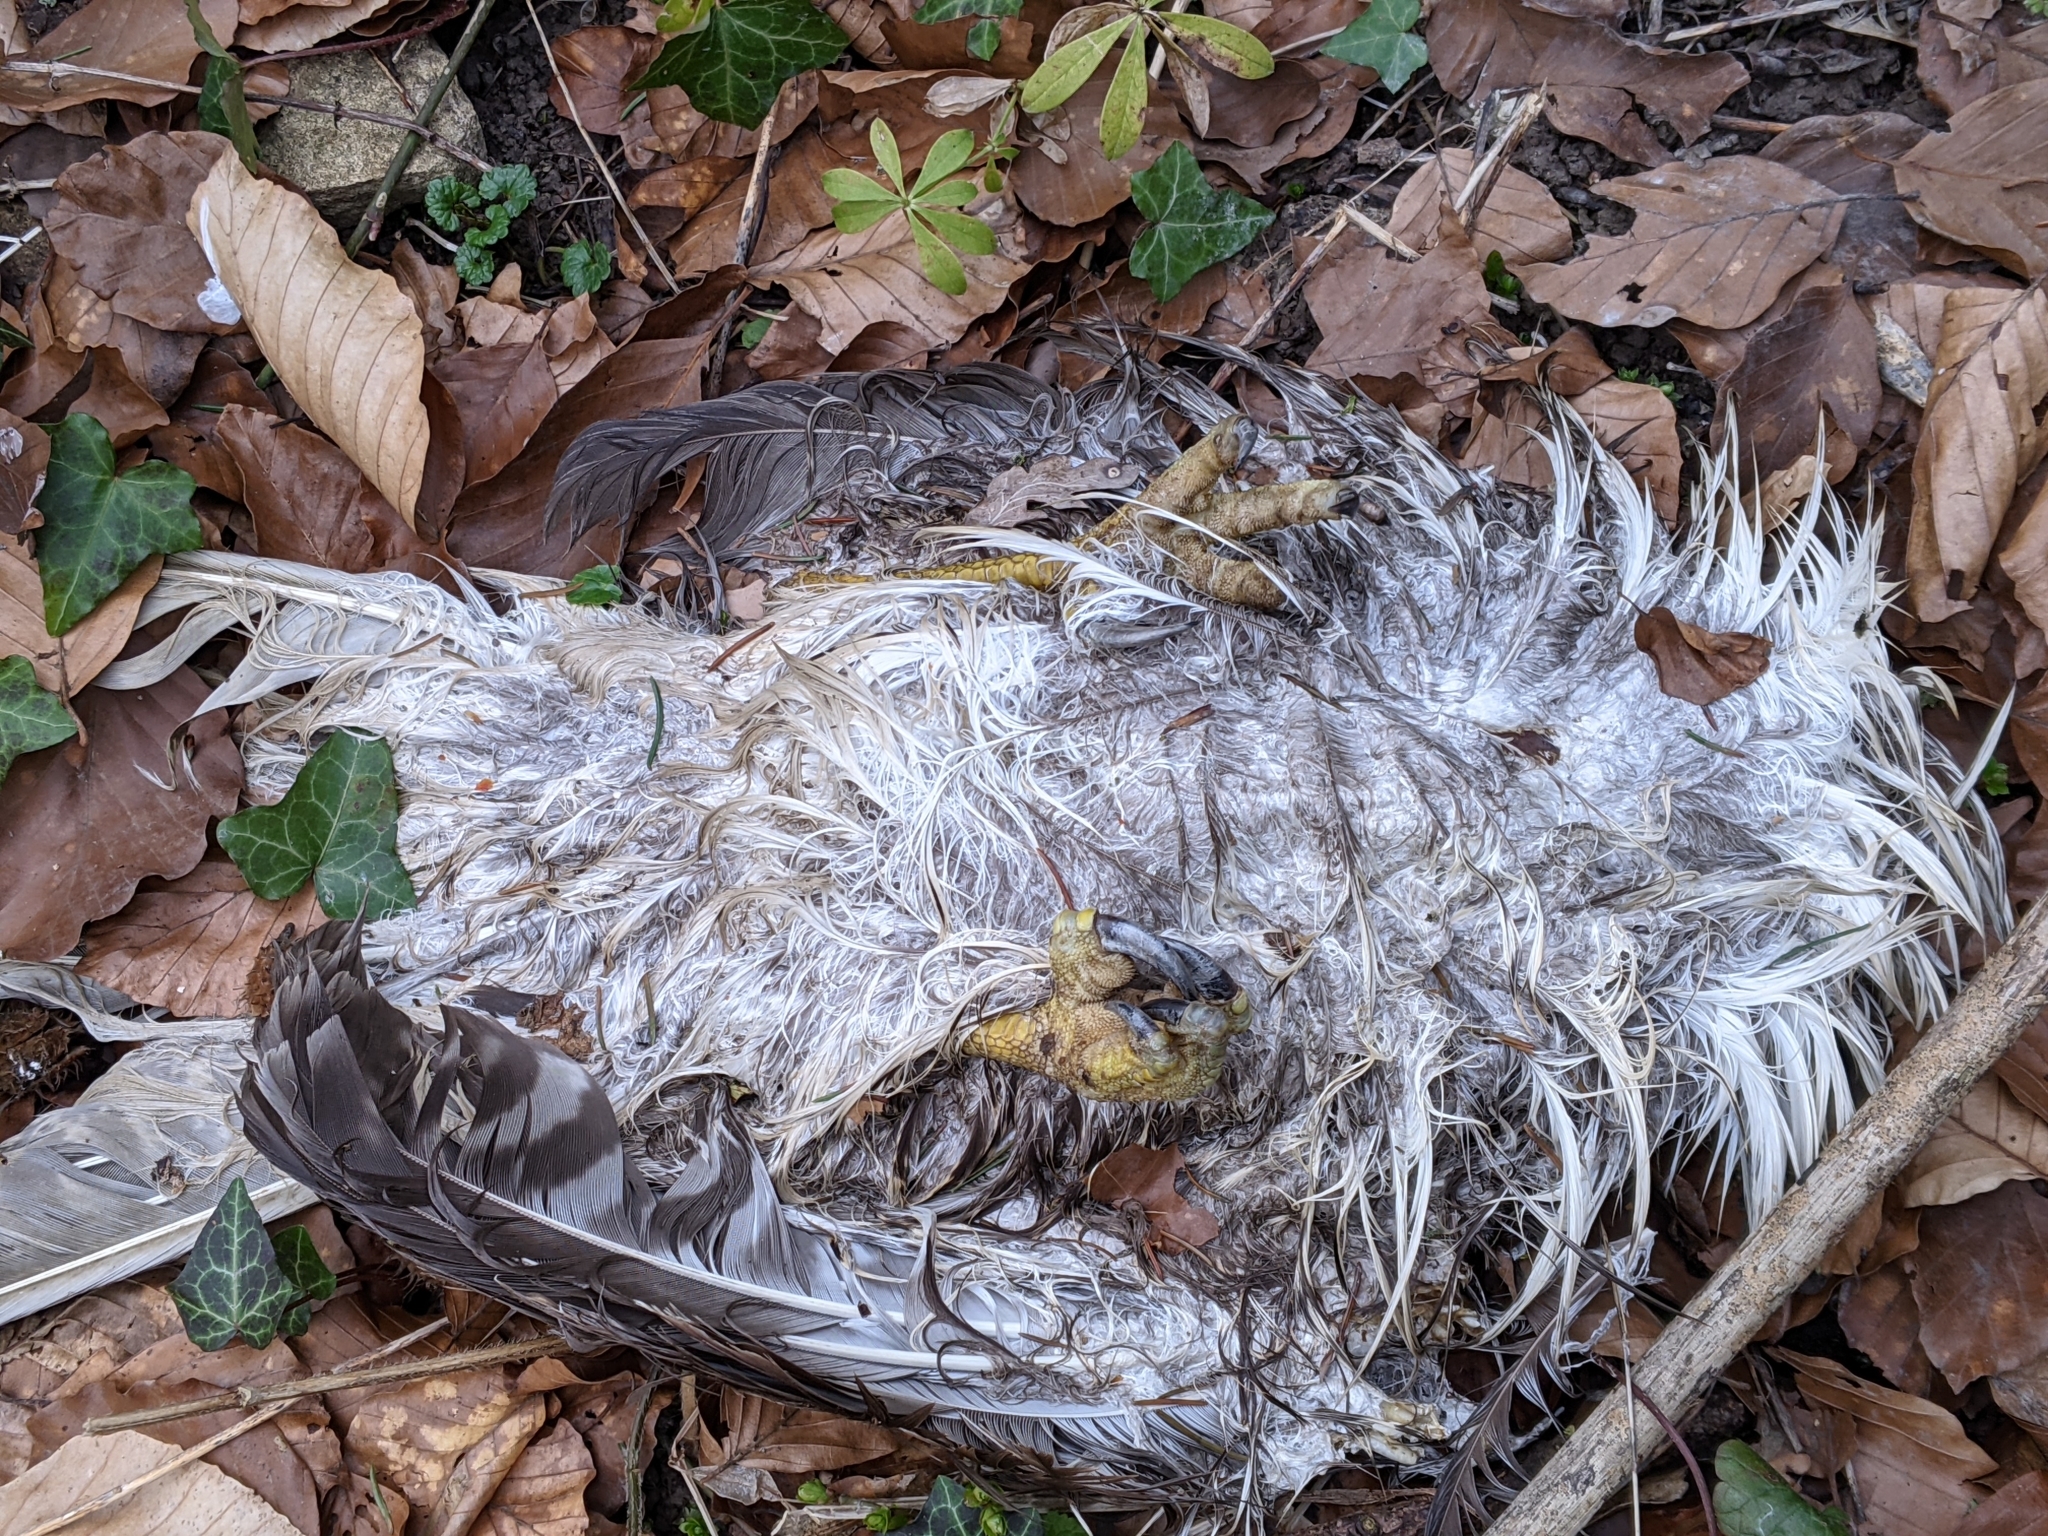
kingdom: Animalia
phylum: Chordata
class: Aves
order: Accipitriformes
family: Accipitridae
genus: Buteo
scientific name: Buteo buteo
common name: Common buzzard
